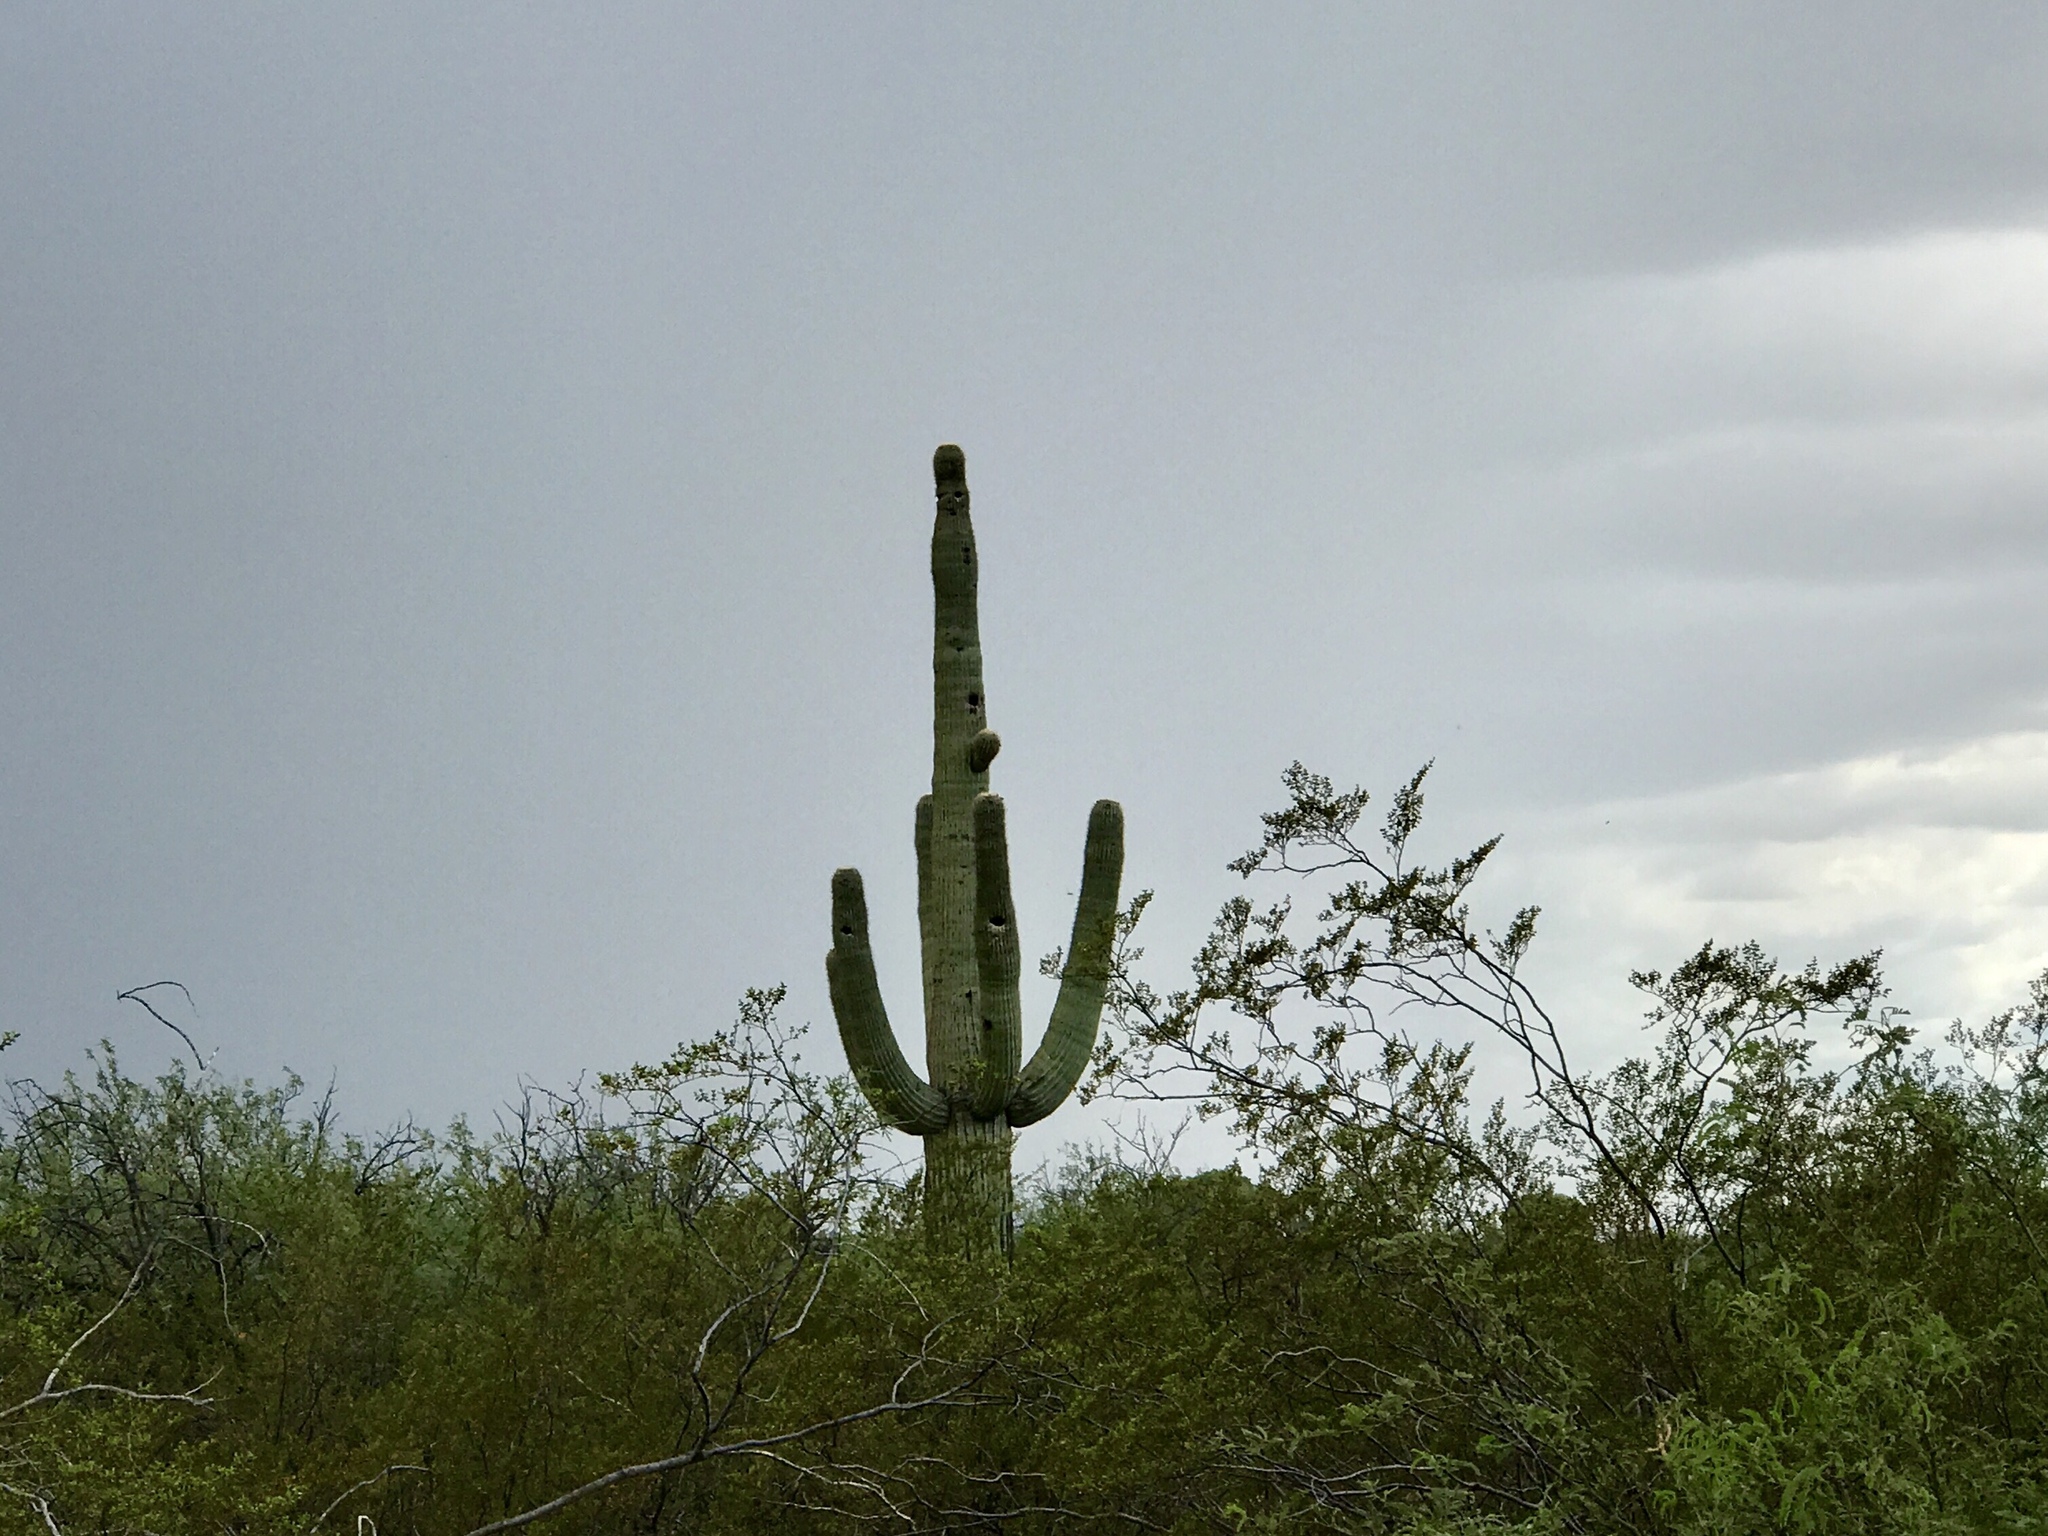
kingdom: Plantae
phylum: Tracheophyta
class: Magnoliopsida
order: Caryophyllales
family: Cactaceae
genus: Carnegiea
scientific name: Carnegiea gigantea
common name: Saguaro
